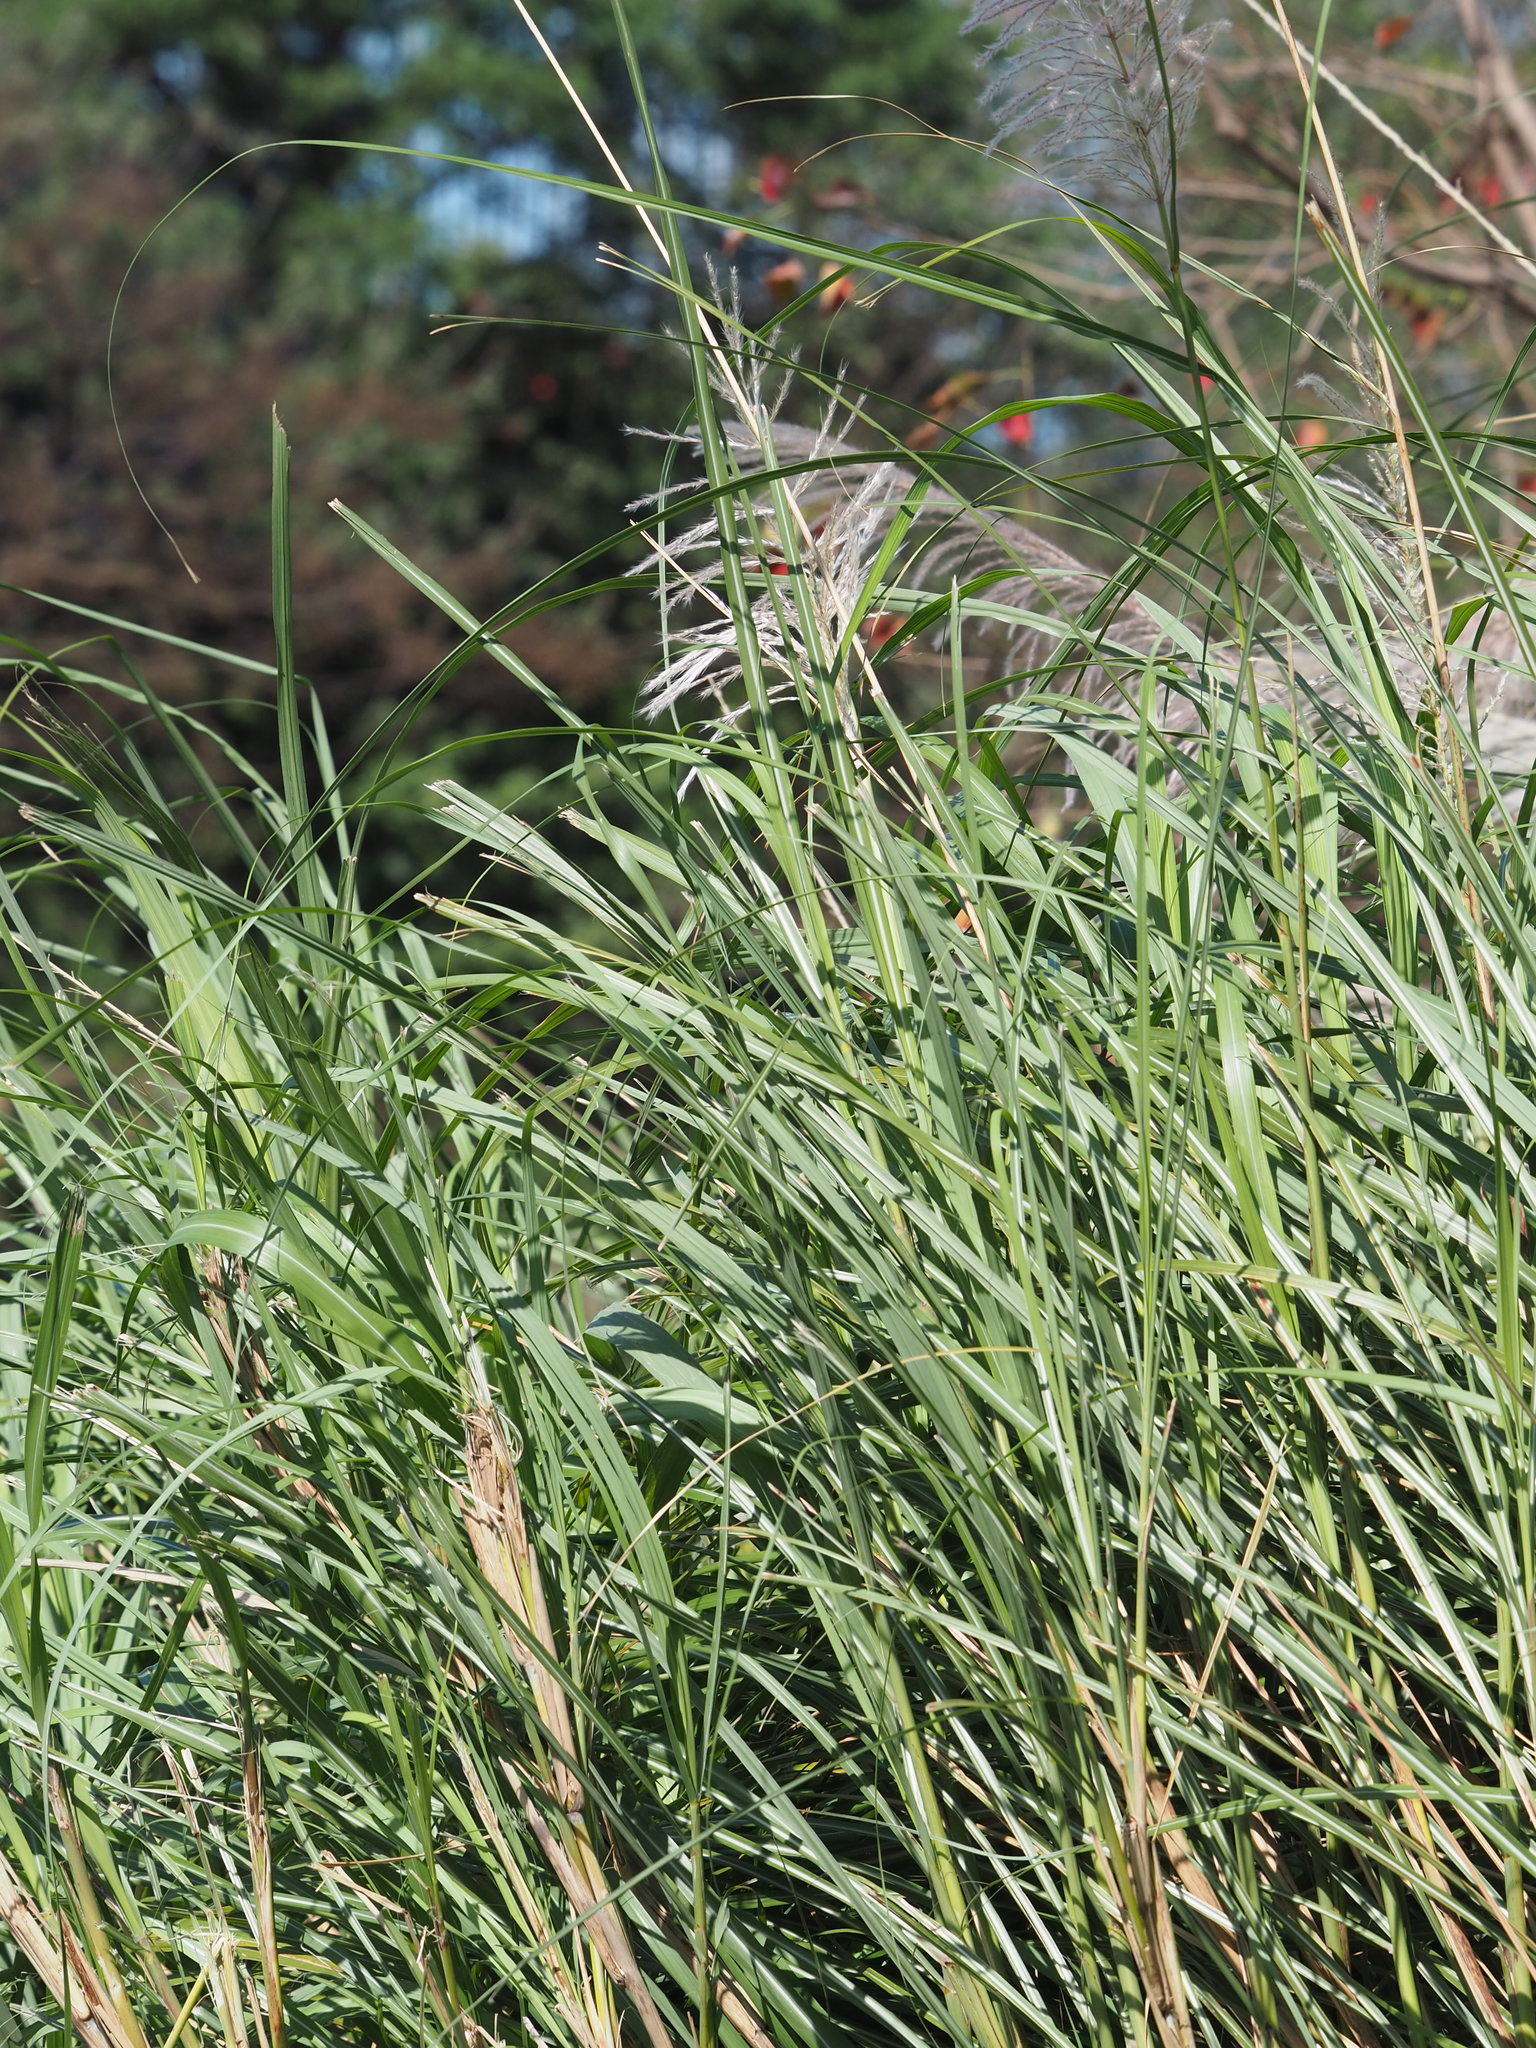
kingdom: Plantae
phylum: Tracheophyta
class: Liliopsida
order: Poales
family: Poaceae
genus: Saccharum
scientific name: Saccharum spontaneum
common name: Wild sugarcane
